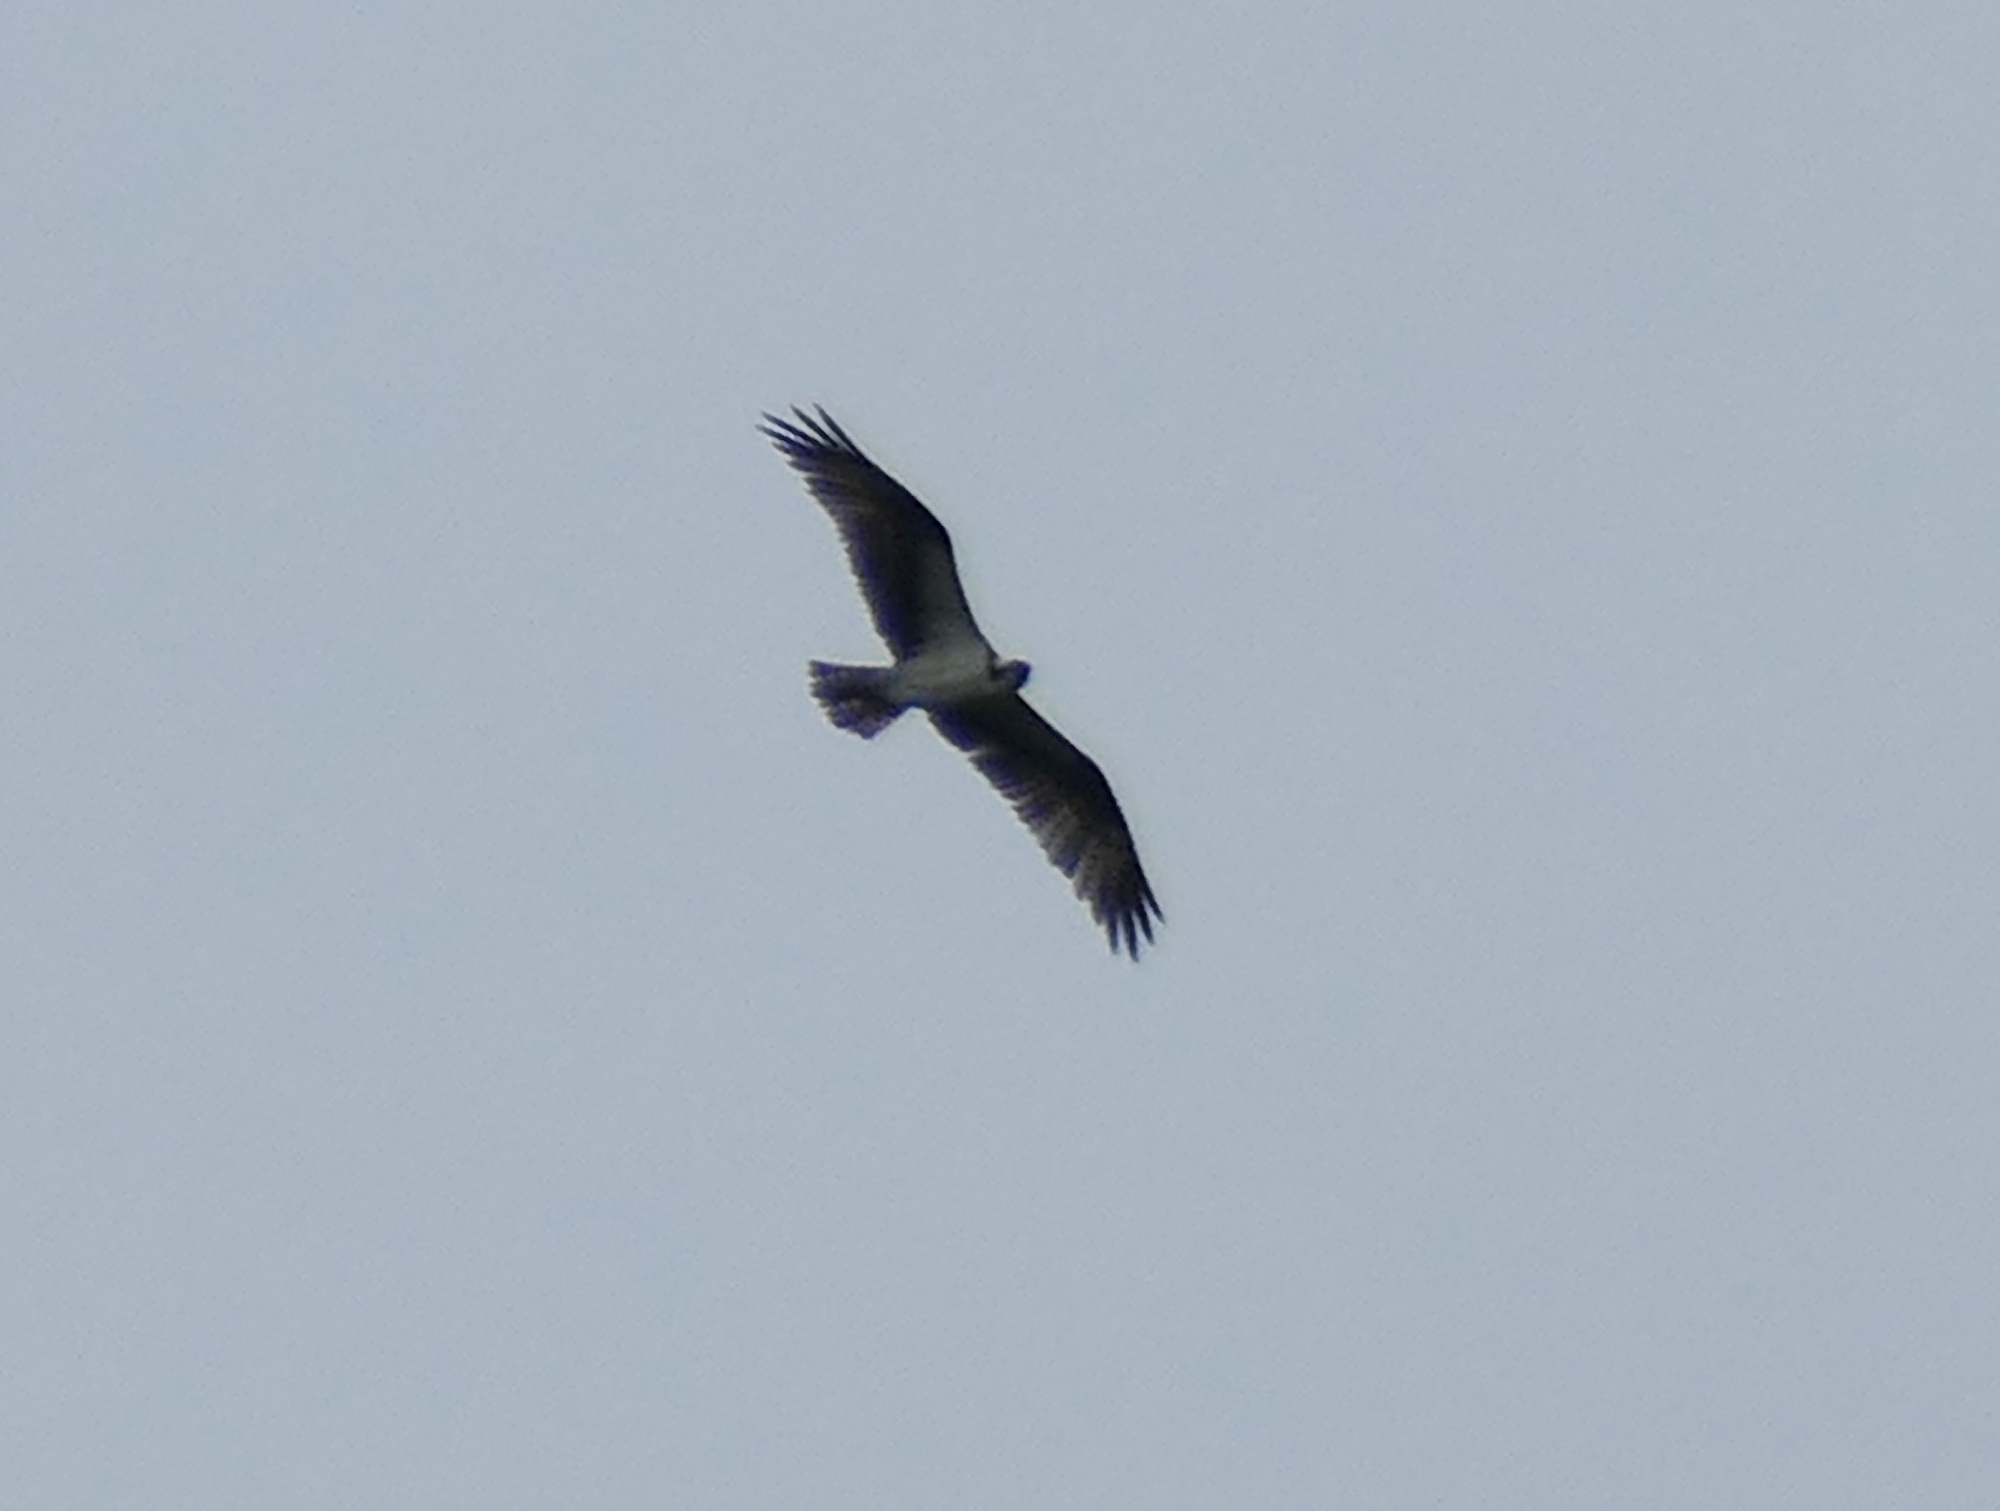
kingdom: Animalia
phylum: Chordata
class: Aves
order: Accipitriformes
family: Pandionidae
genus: Pandion
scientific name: Pandion haliaetus
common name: Osprey
